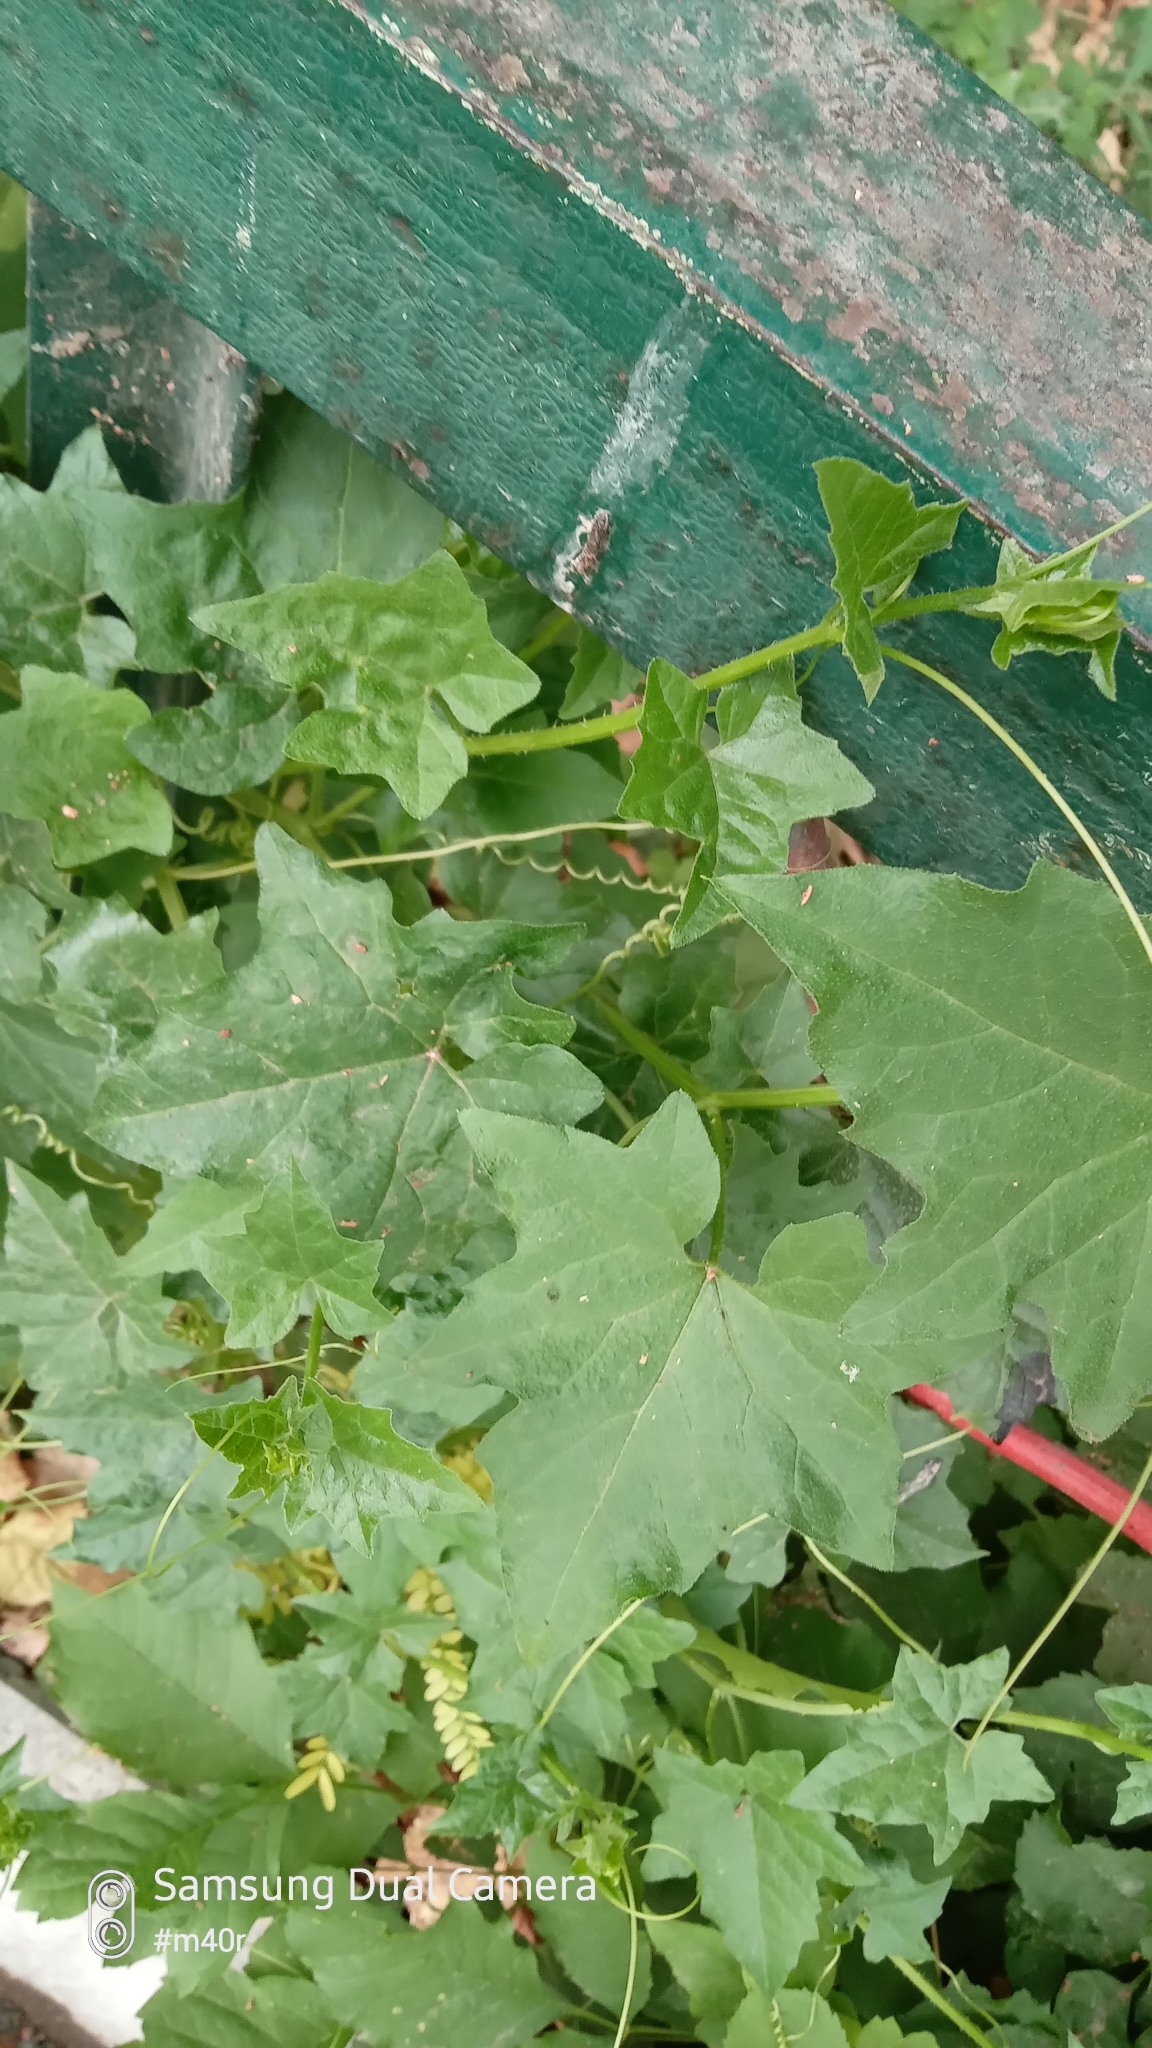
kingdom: Plantae
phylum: Tracheophyta
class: Magnoliopsida
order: Cucurbitales
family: Cucurbitaceae
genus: Bryonia
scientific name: Bryonia alba
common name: White bryony
